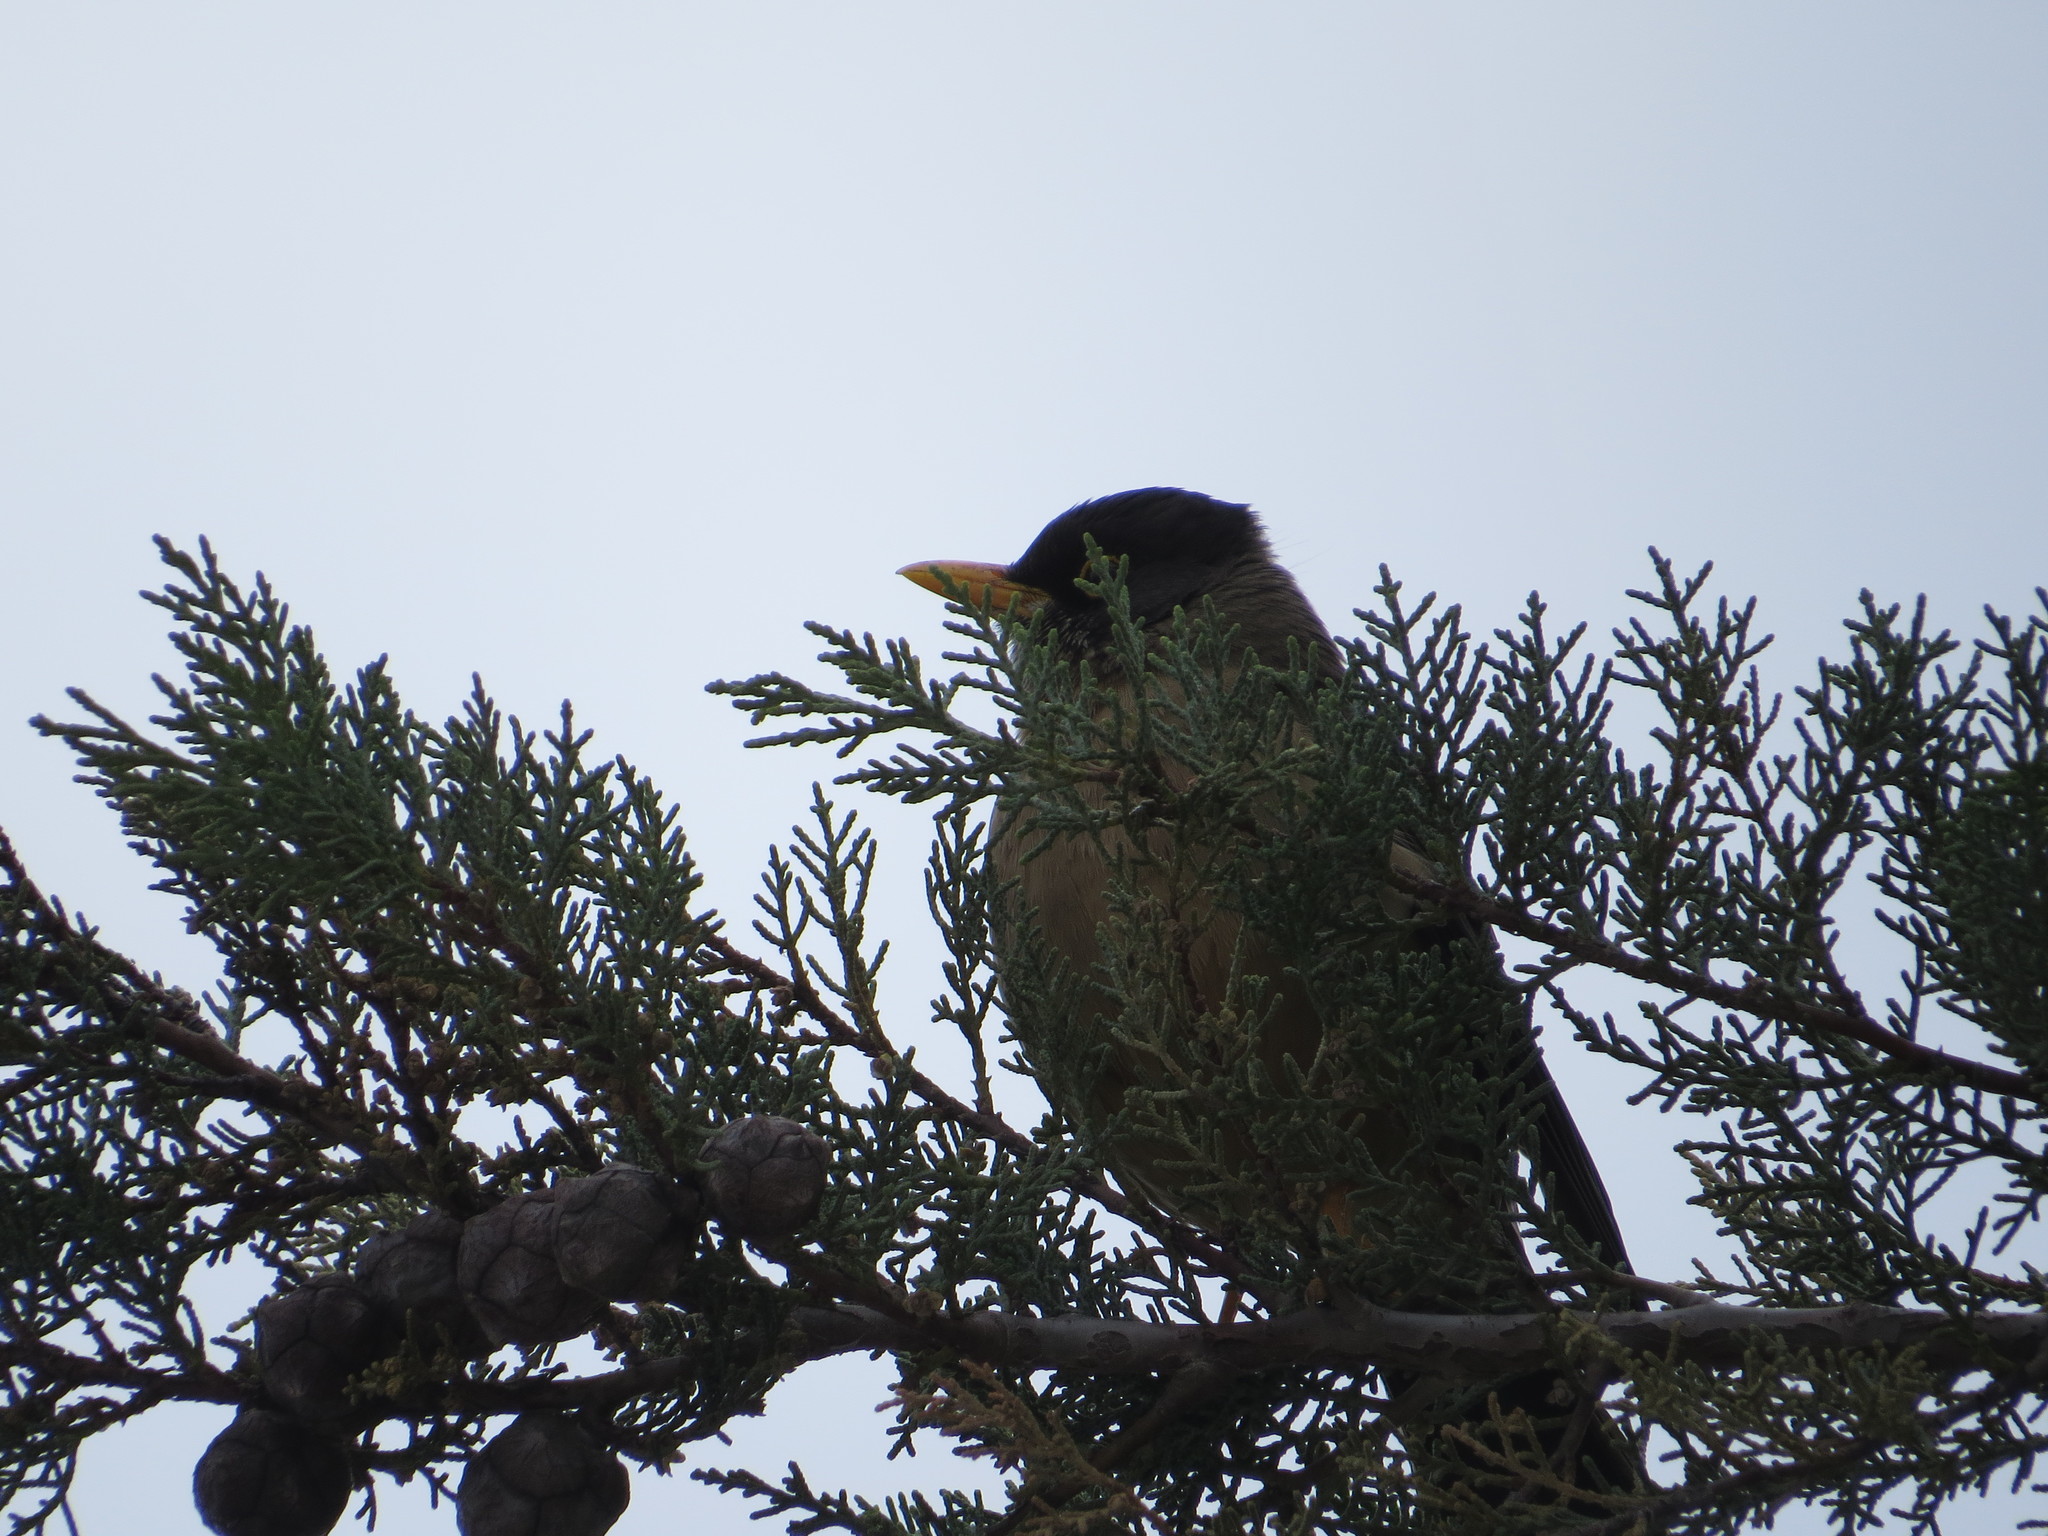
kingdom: Animalia
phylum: Chordata
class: Aves
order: Passeriformes
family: Turdidae
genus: Turdus
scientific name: Turdus falcklandii
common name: Austral thrush
